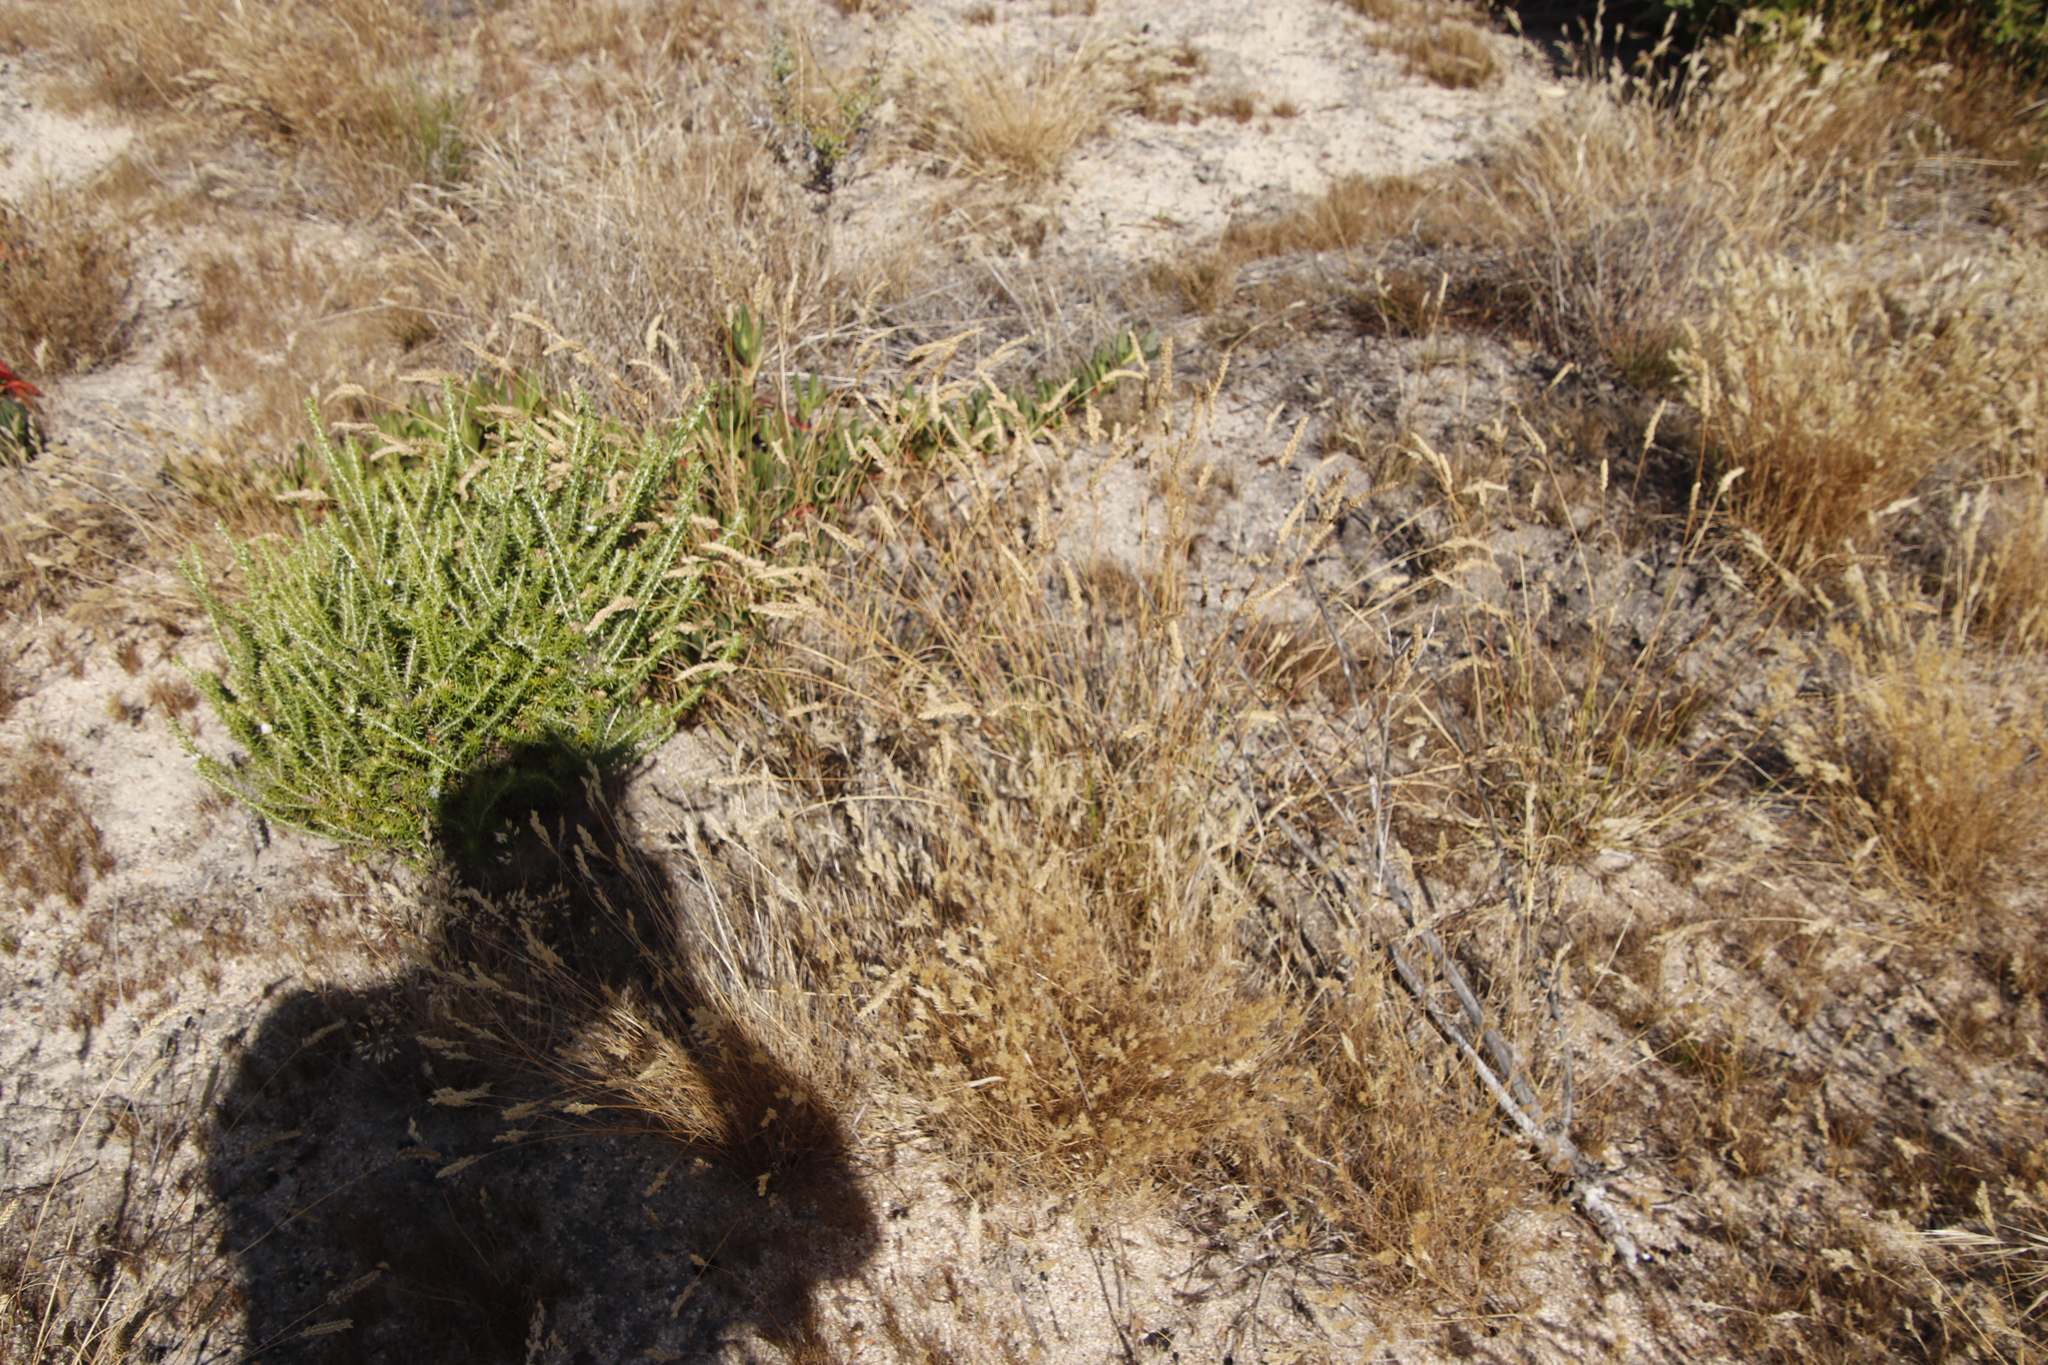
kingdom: Plantae
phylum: Tracheophyta
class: Liliopsida
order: Poales
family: Poaceae
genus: Tribolium
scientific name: Tribolium uniolae
